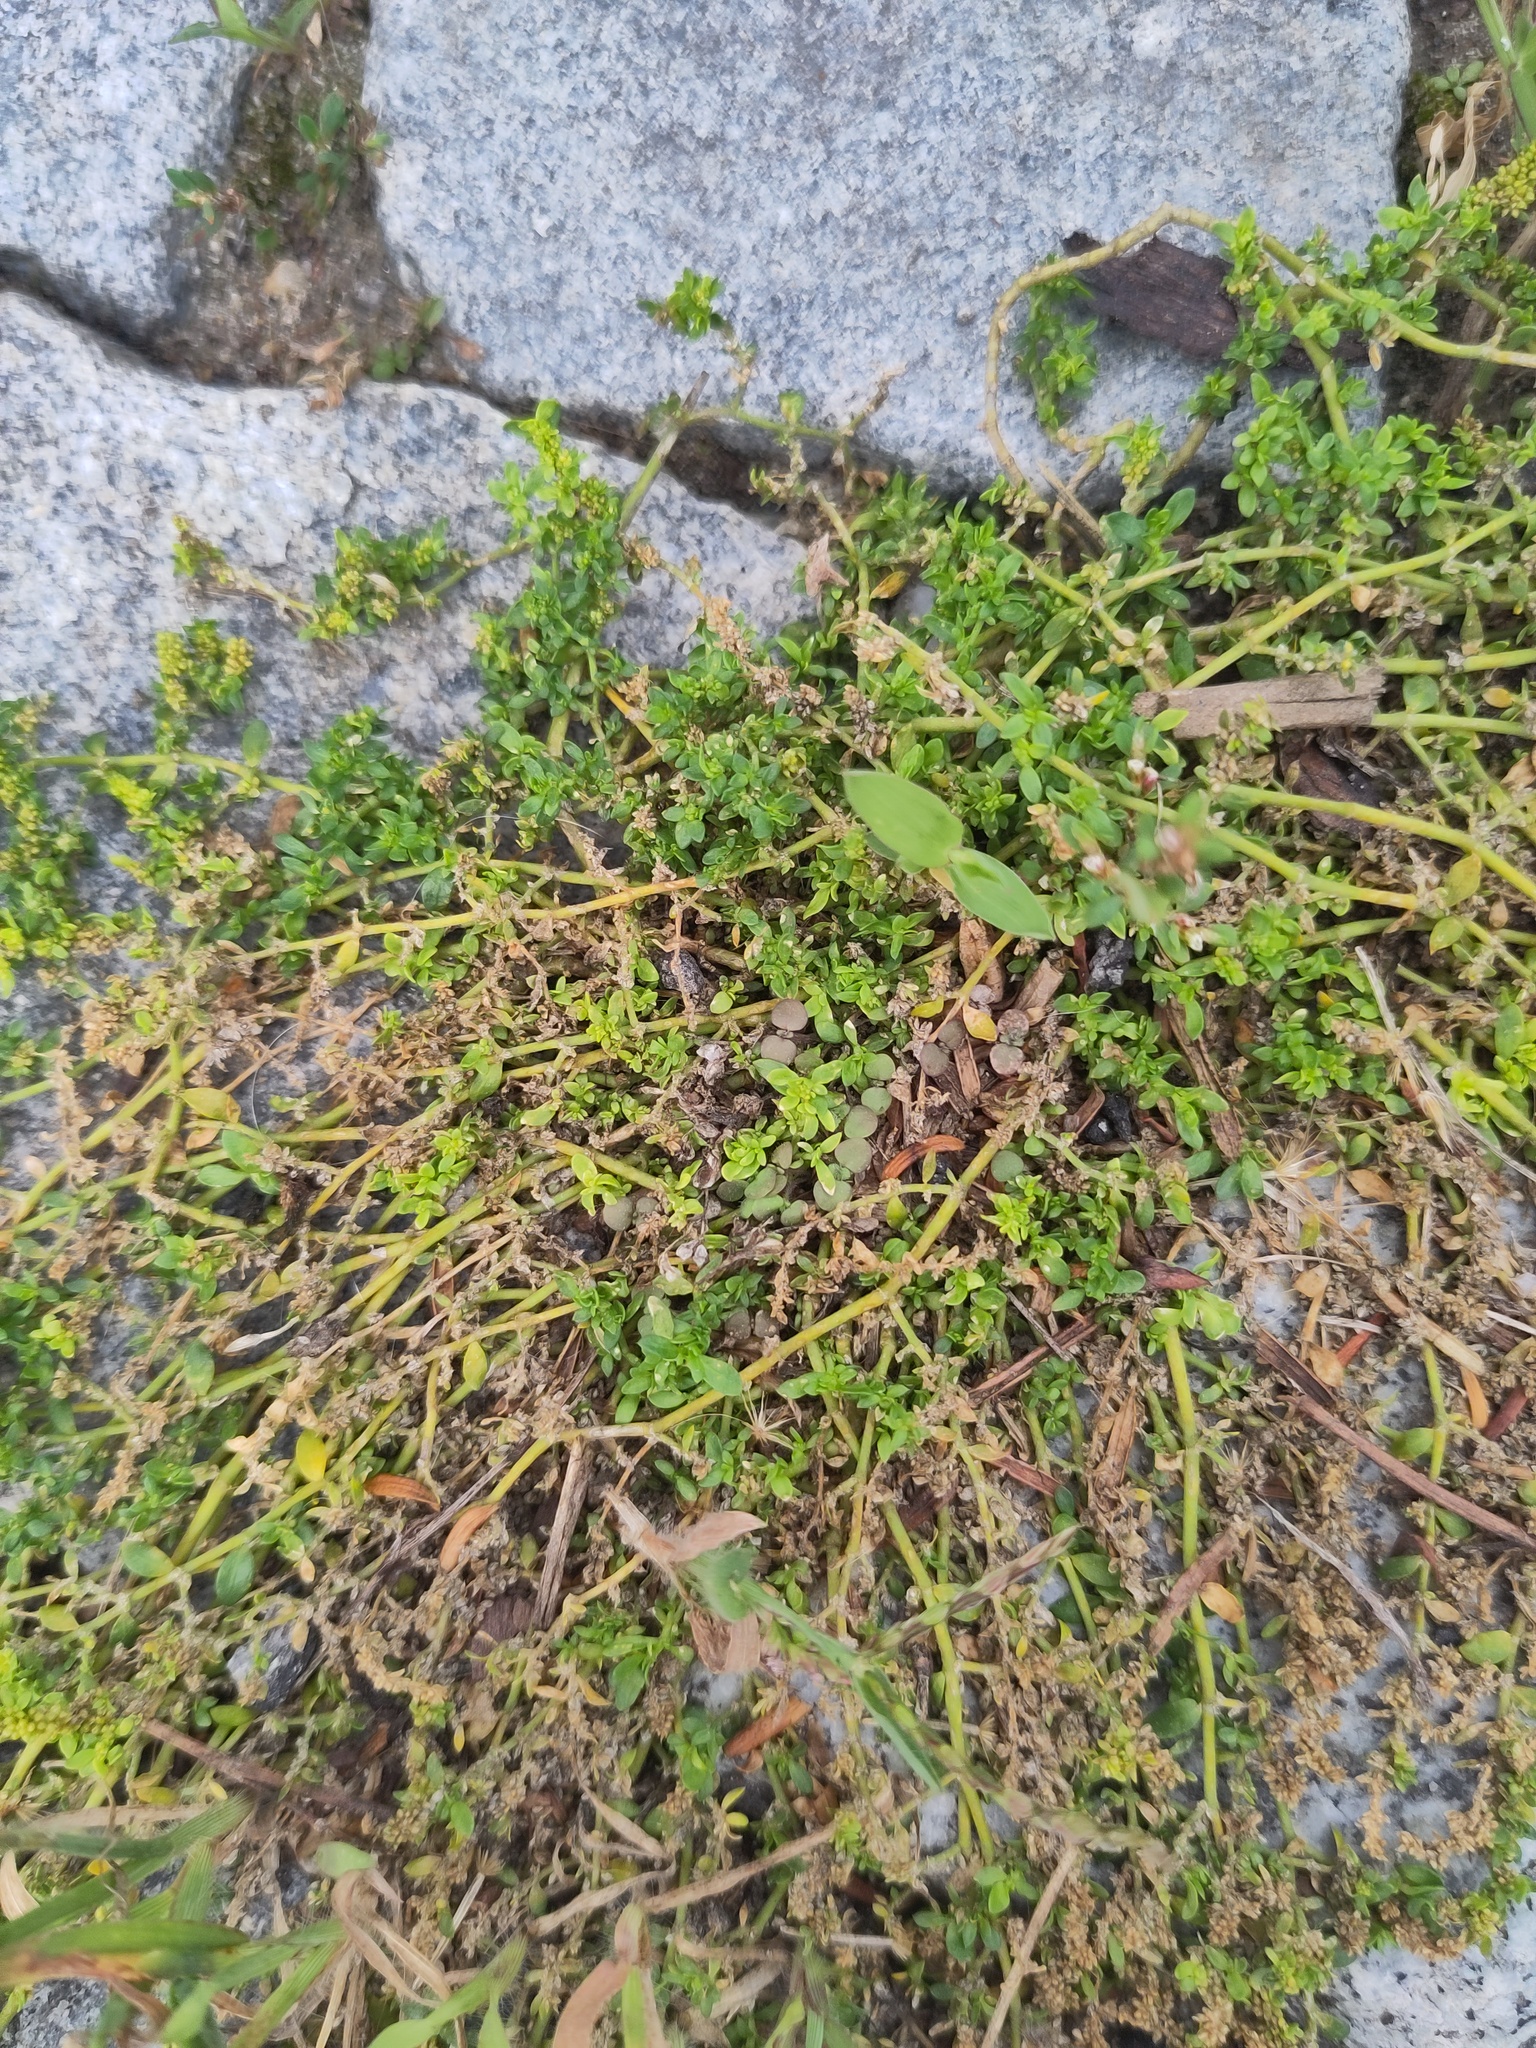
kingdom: Plantae
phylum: Tracheophyta
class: Magnoliopsida
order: Caryophyllales
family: Caryophyllaceae
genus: Herniaria
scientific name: Herniaria glabra
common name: Smooth rupturewort
